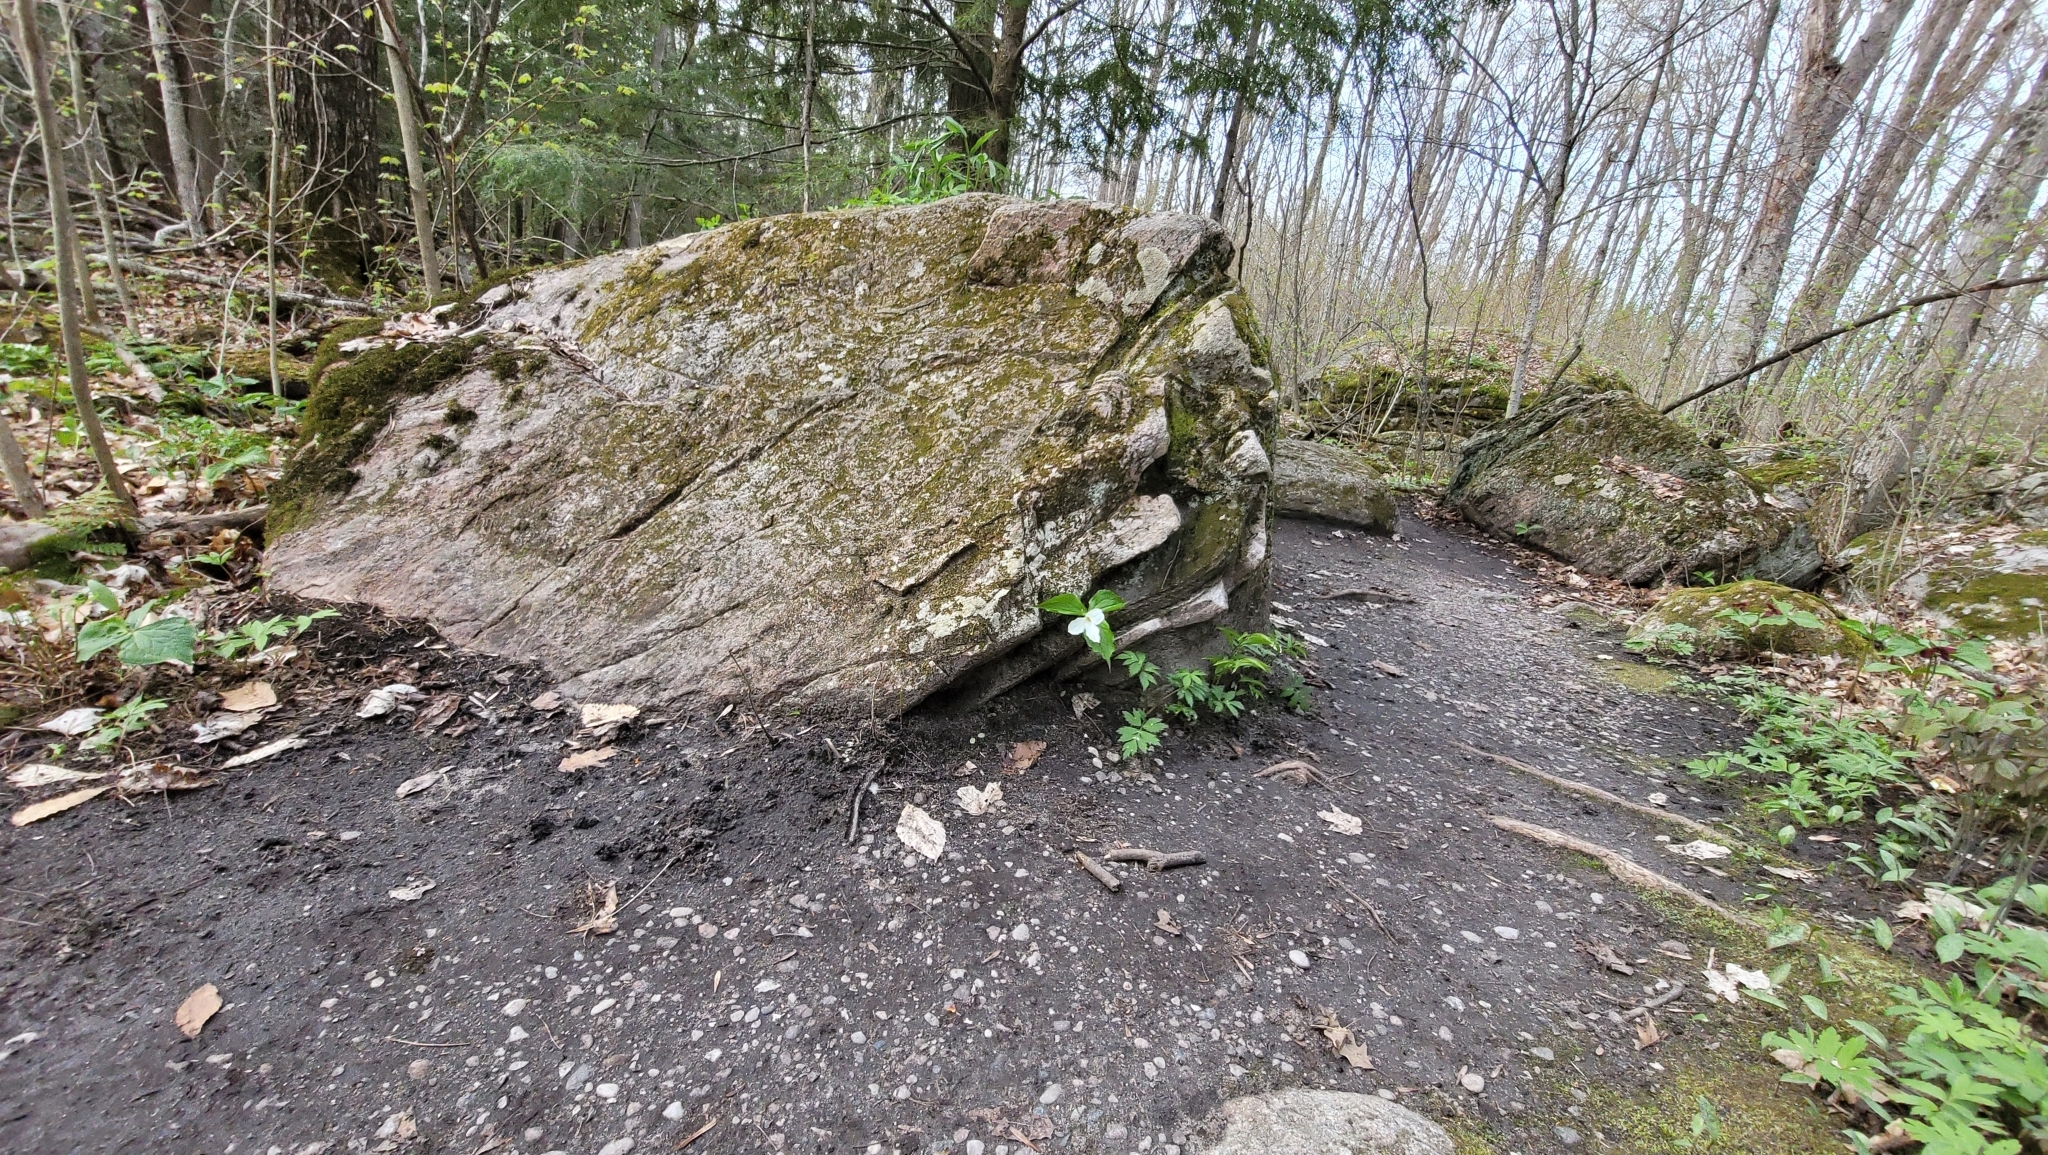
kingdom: Plantae
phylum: Tracheophyta
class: Liliopsida
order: Liliales
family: Melanthiaceae
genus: Trillium
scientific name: Trillium grandiflorum
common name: Great white trillium
